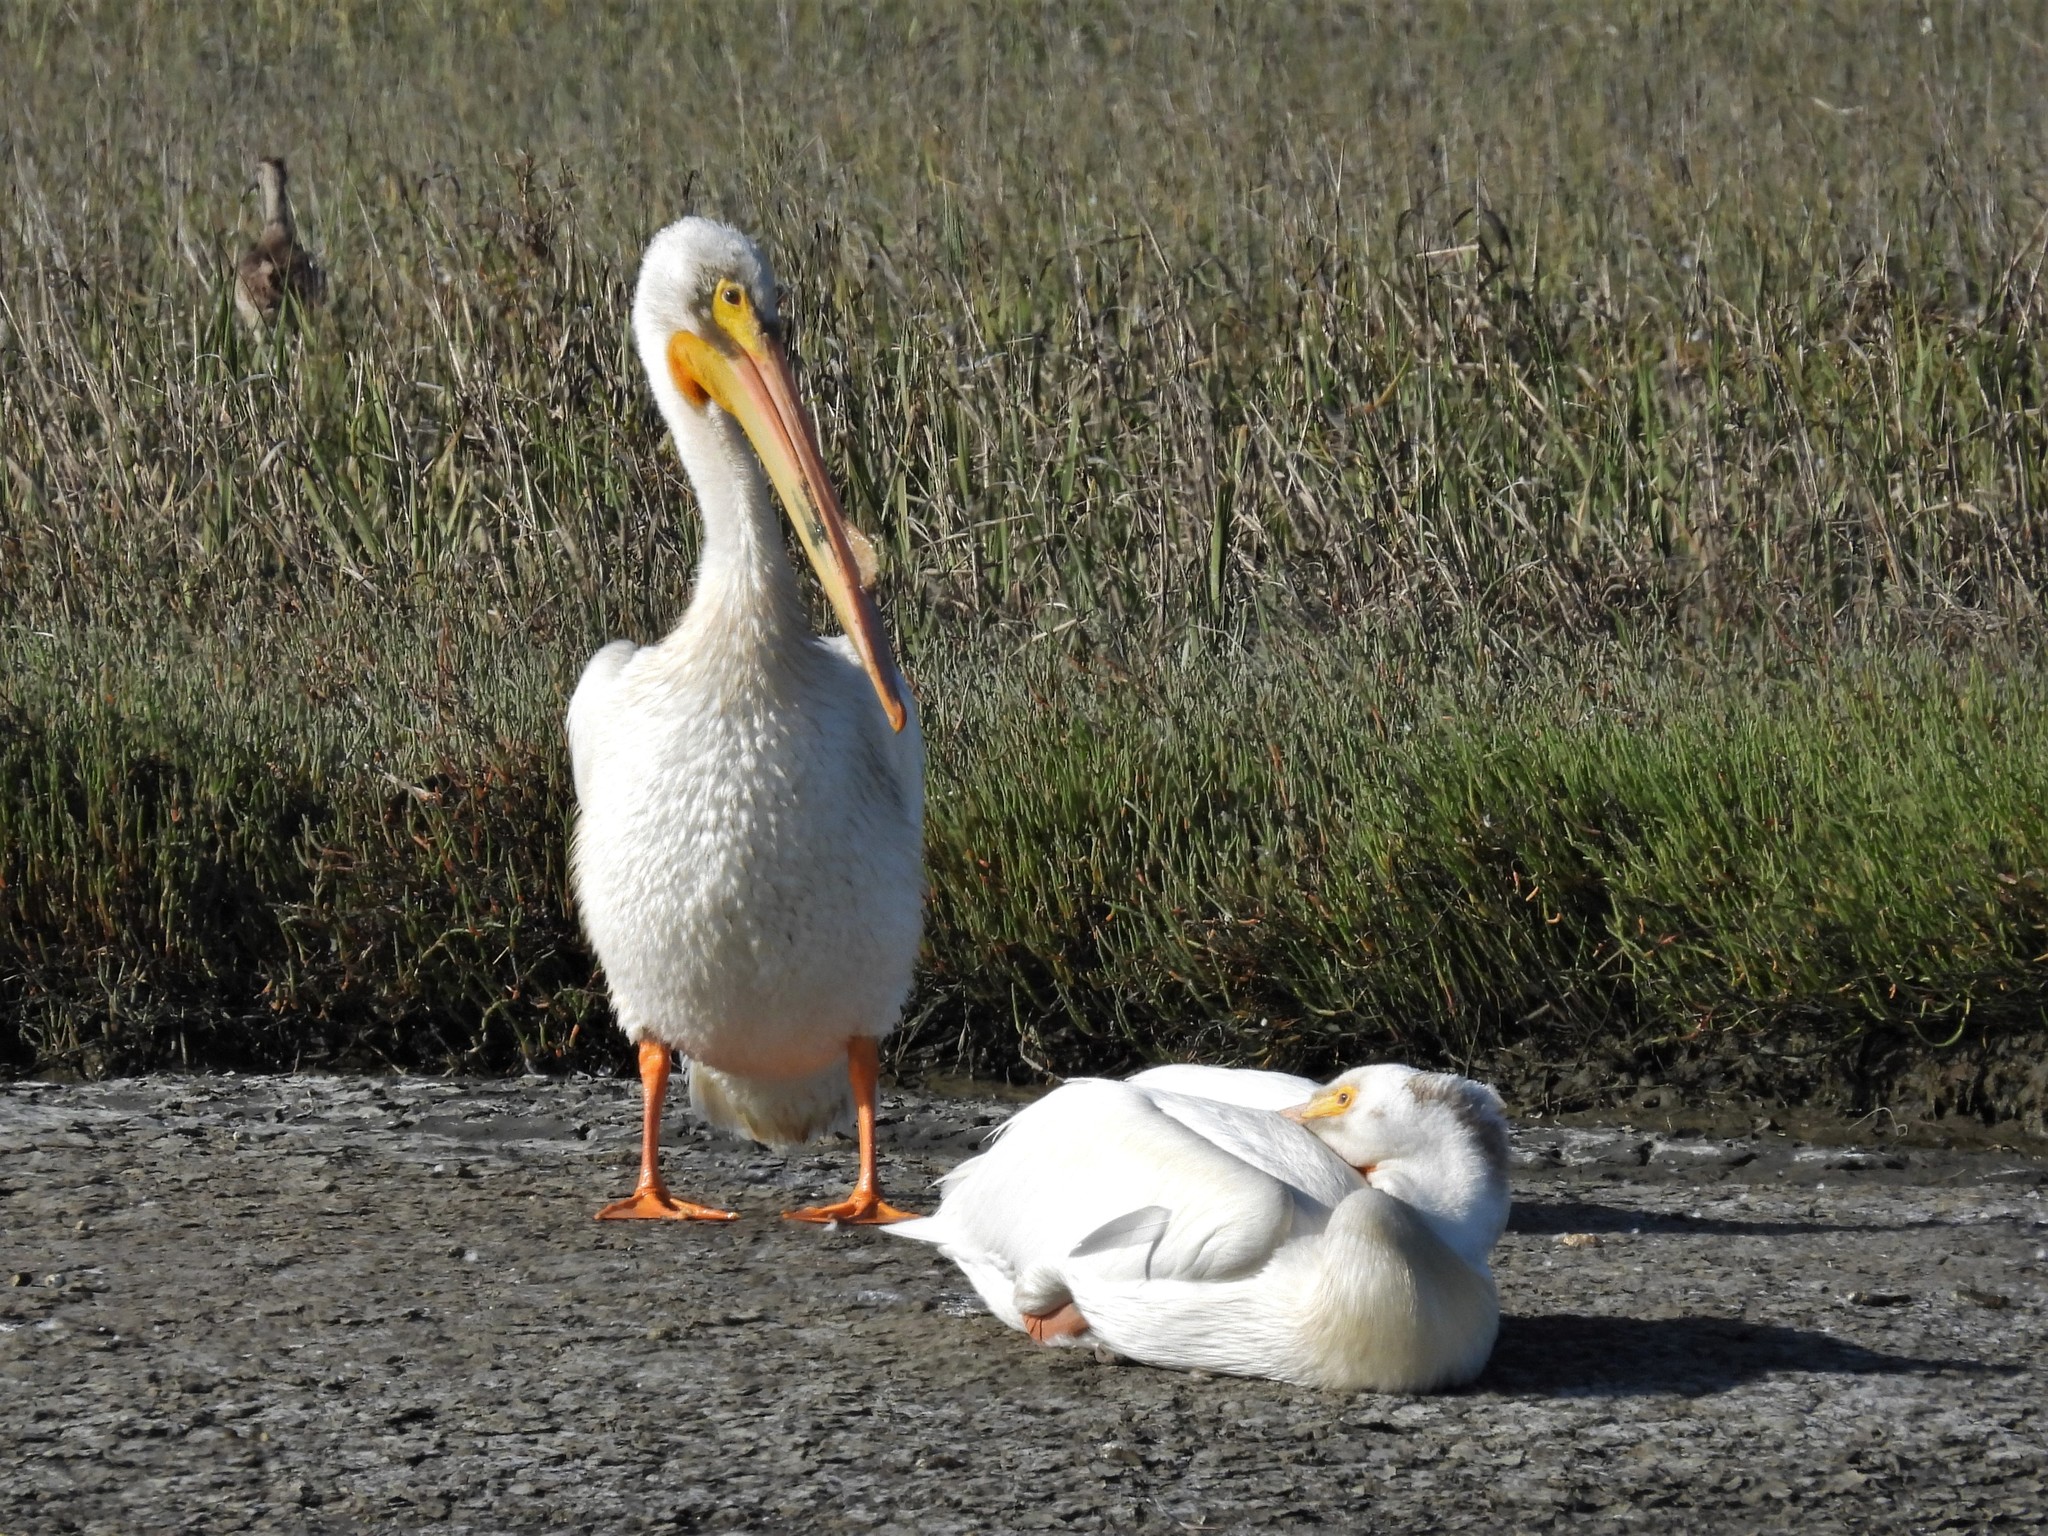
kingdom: Animalia
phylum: Chordata
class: Aves
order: Pelecaniformes
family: Pelecanidae
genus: Pelecanus
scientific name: Pelecanus erythrorhynchos
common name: American white pelican
